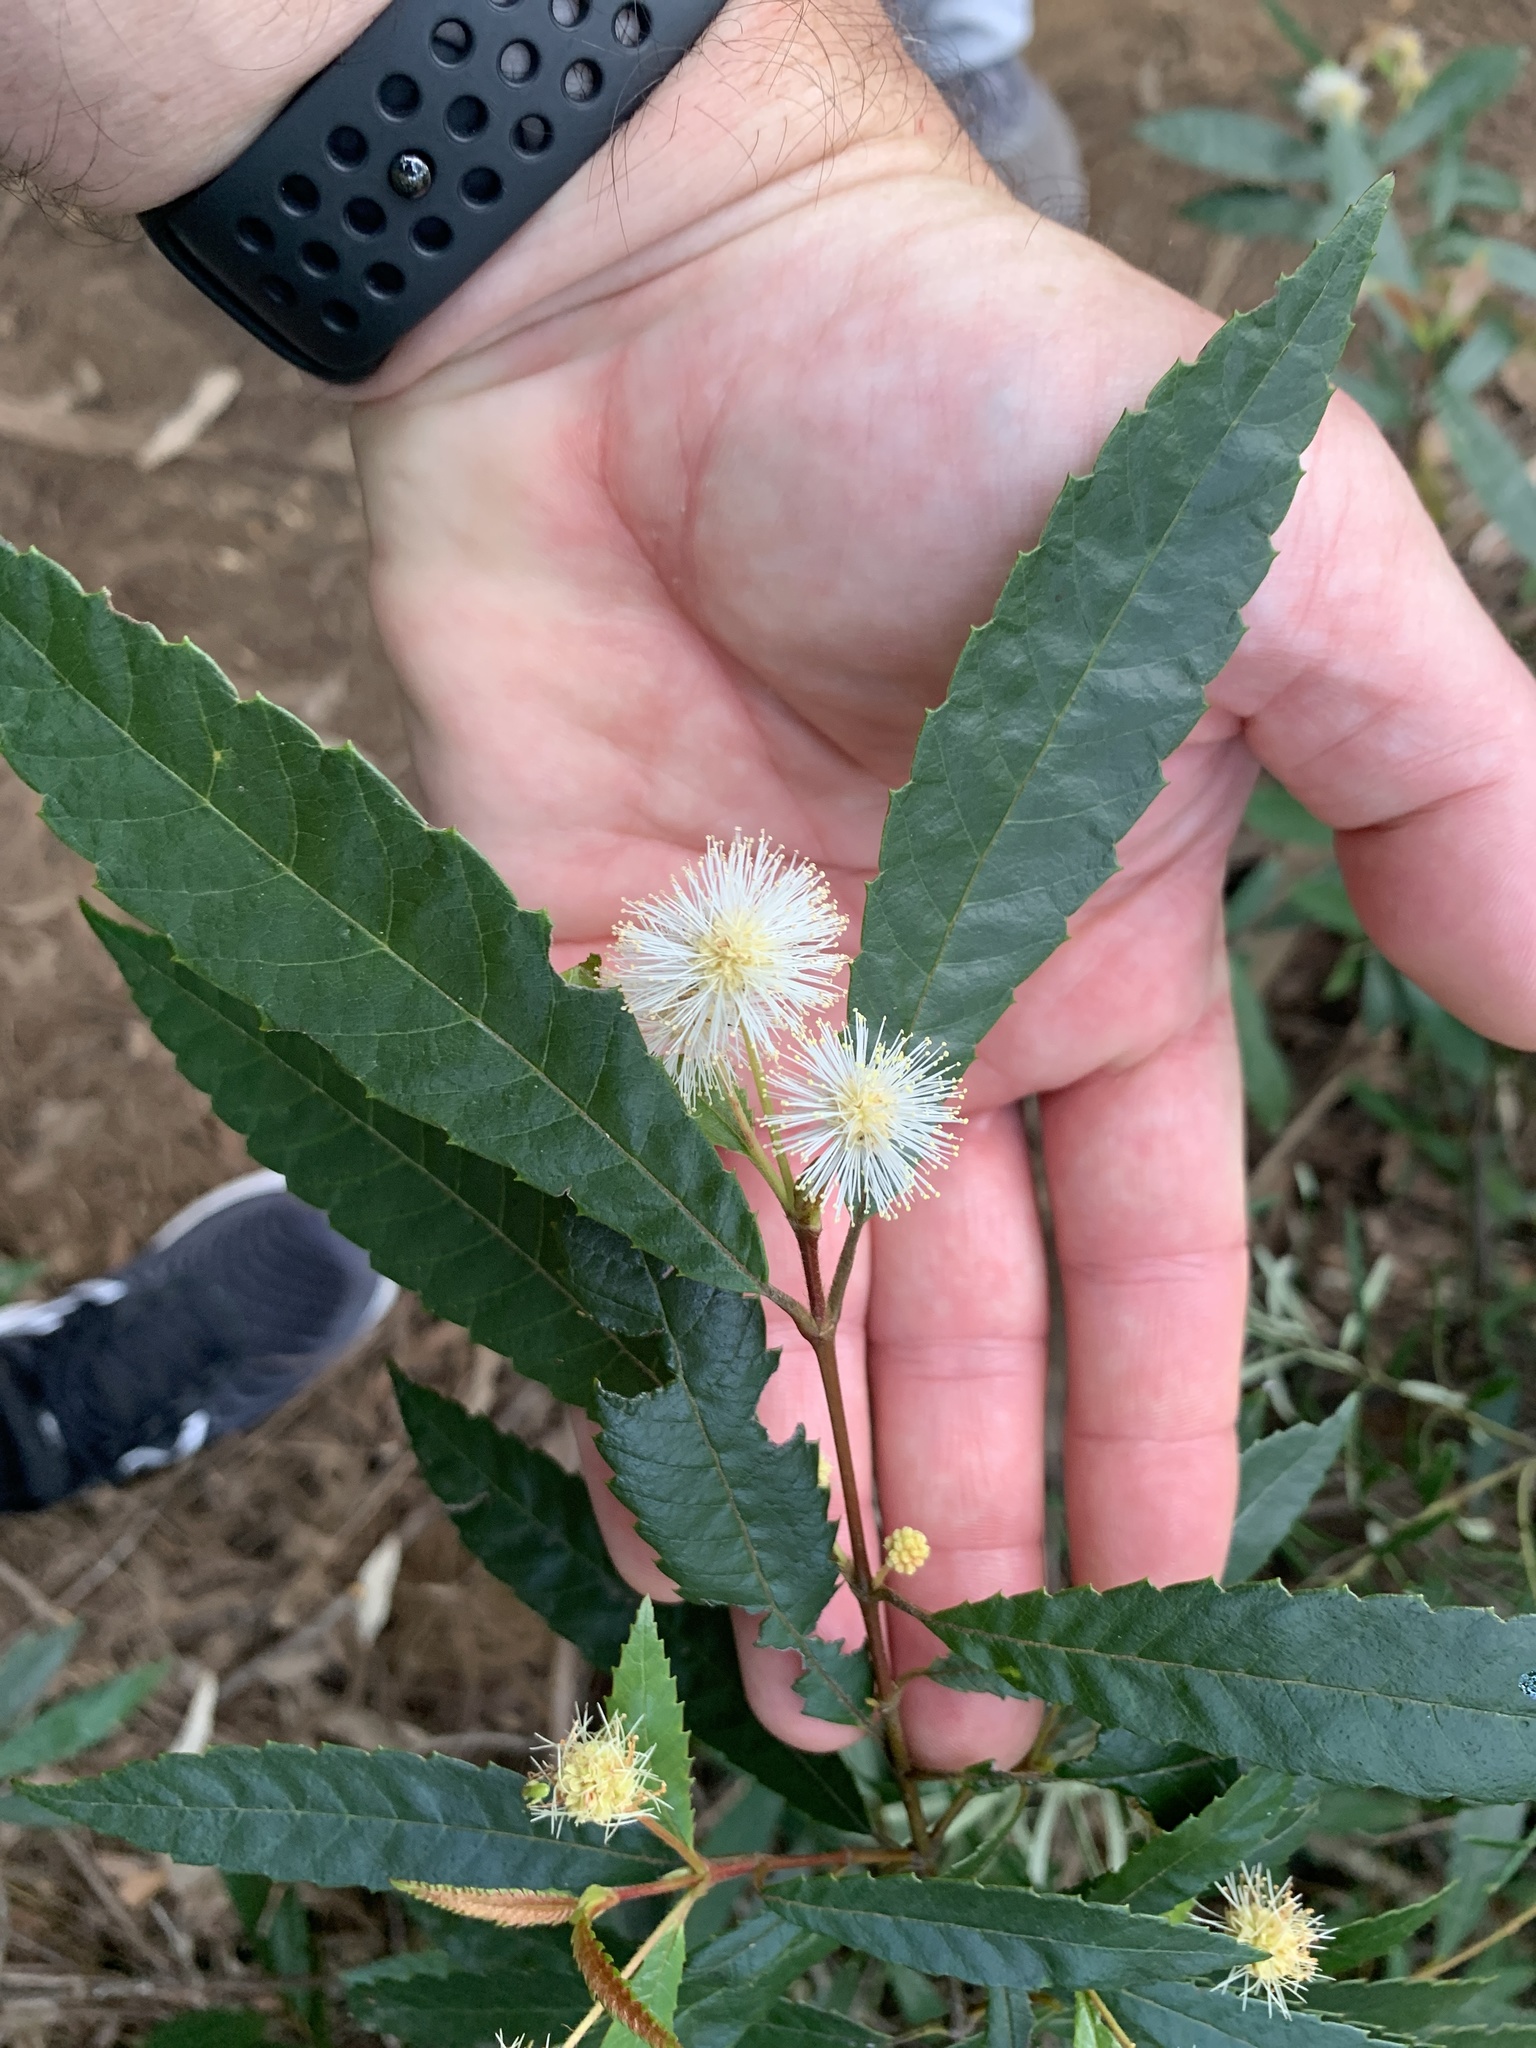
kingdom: Plantae
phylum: Tracheophyta
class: Magnoliopsida
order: Oxalidales
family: Cunoniaceae
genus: Callicoma
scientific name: Callicoma serratifolia
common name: Black wattle
